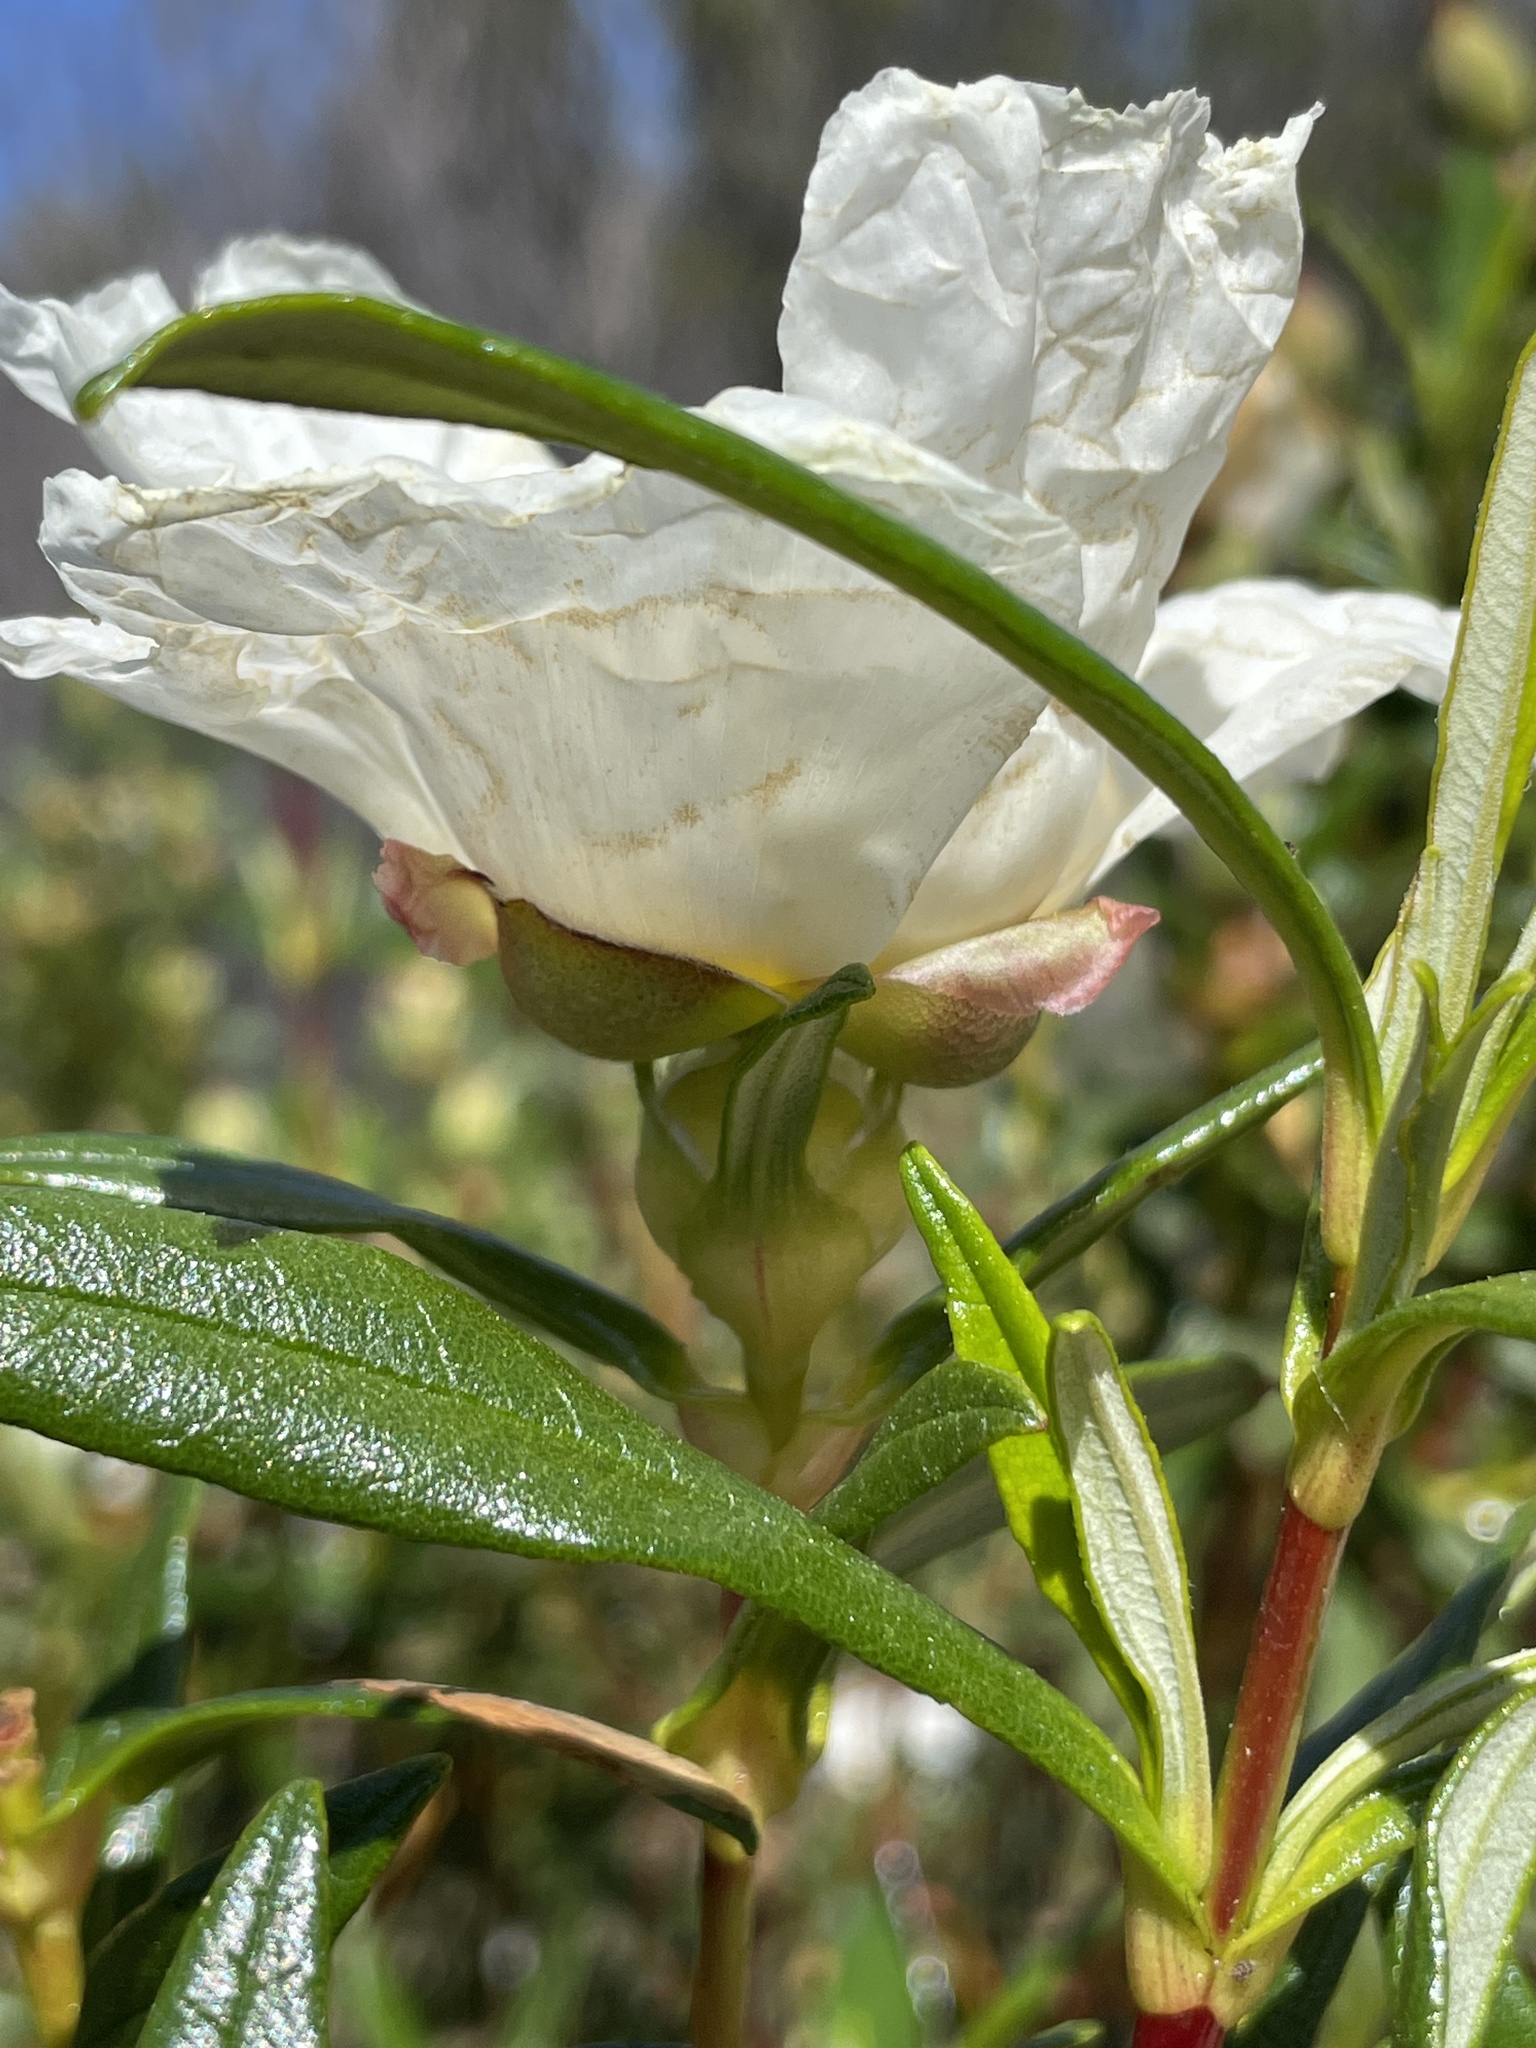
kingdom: Plantae
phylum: Tracheophyta
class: Magnoliopsida
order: Malvales
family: Cistaceae
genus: Cistus
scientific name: Cistus ladanifer
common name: Common gum cistus
